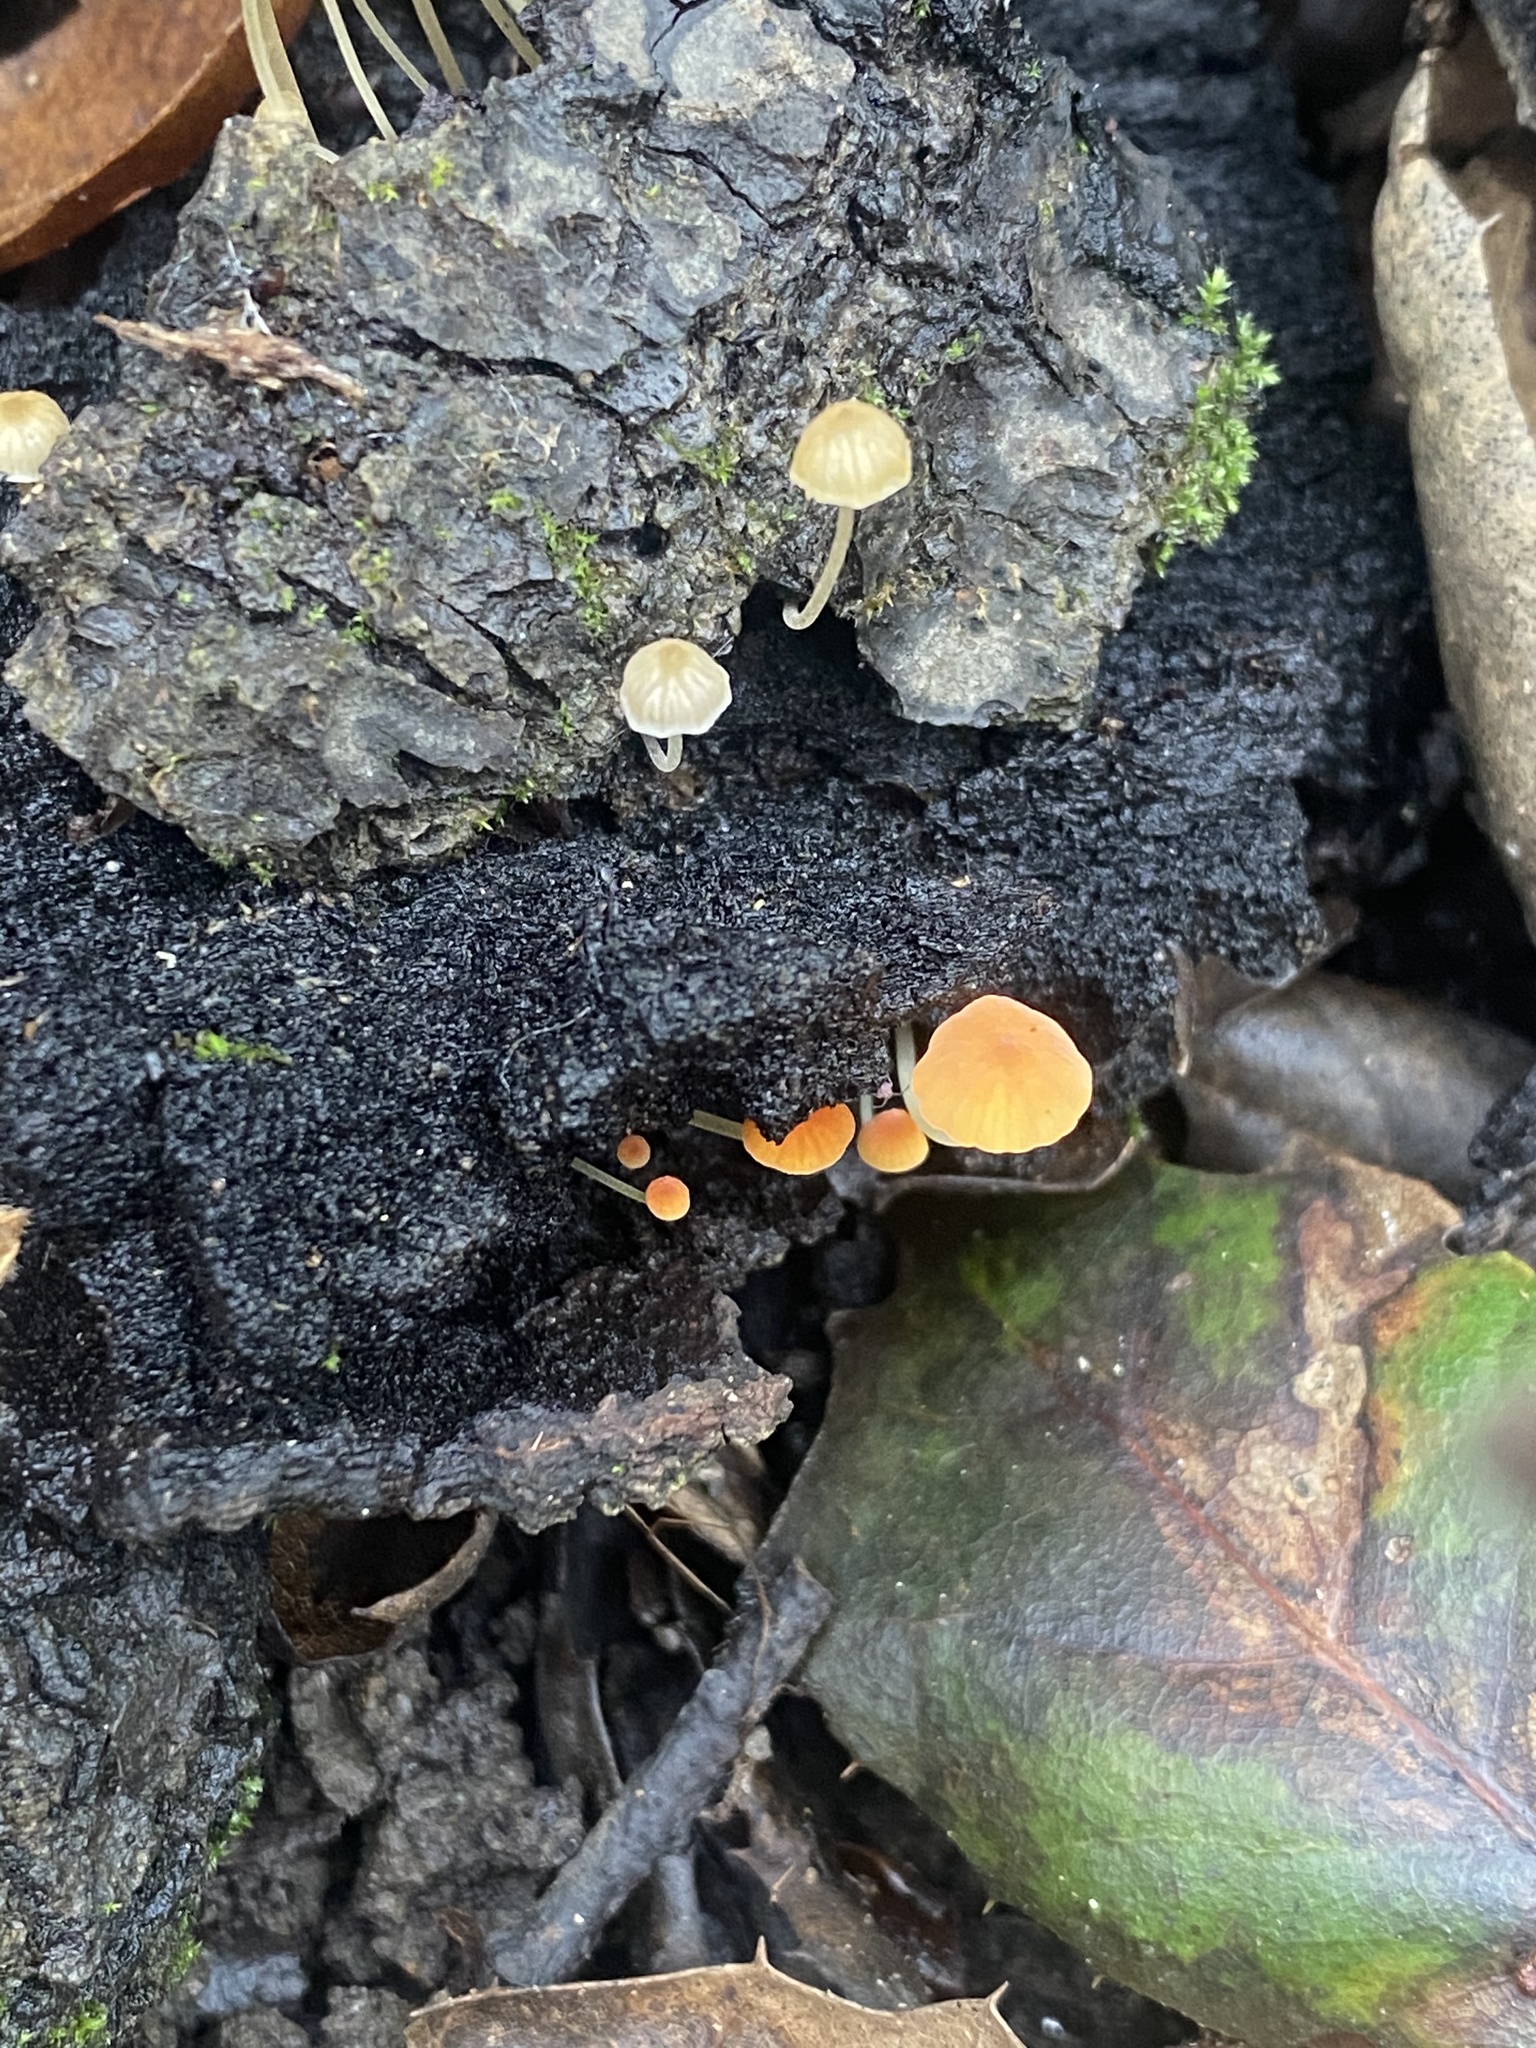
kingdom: Fungi
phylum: Basidiomycota
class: Agaricomycetes
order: Agaricales
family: Mycenaceae
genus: Mycena
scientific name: Mycena acicula
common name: Orange bonnet
